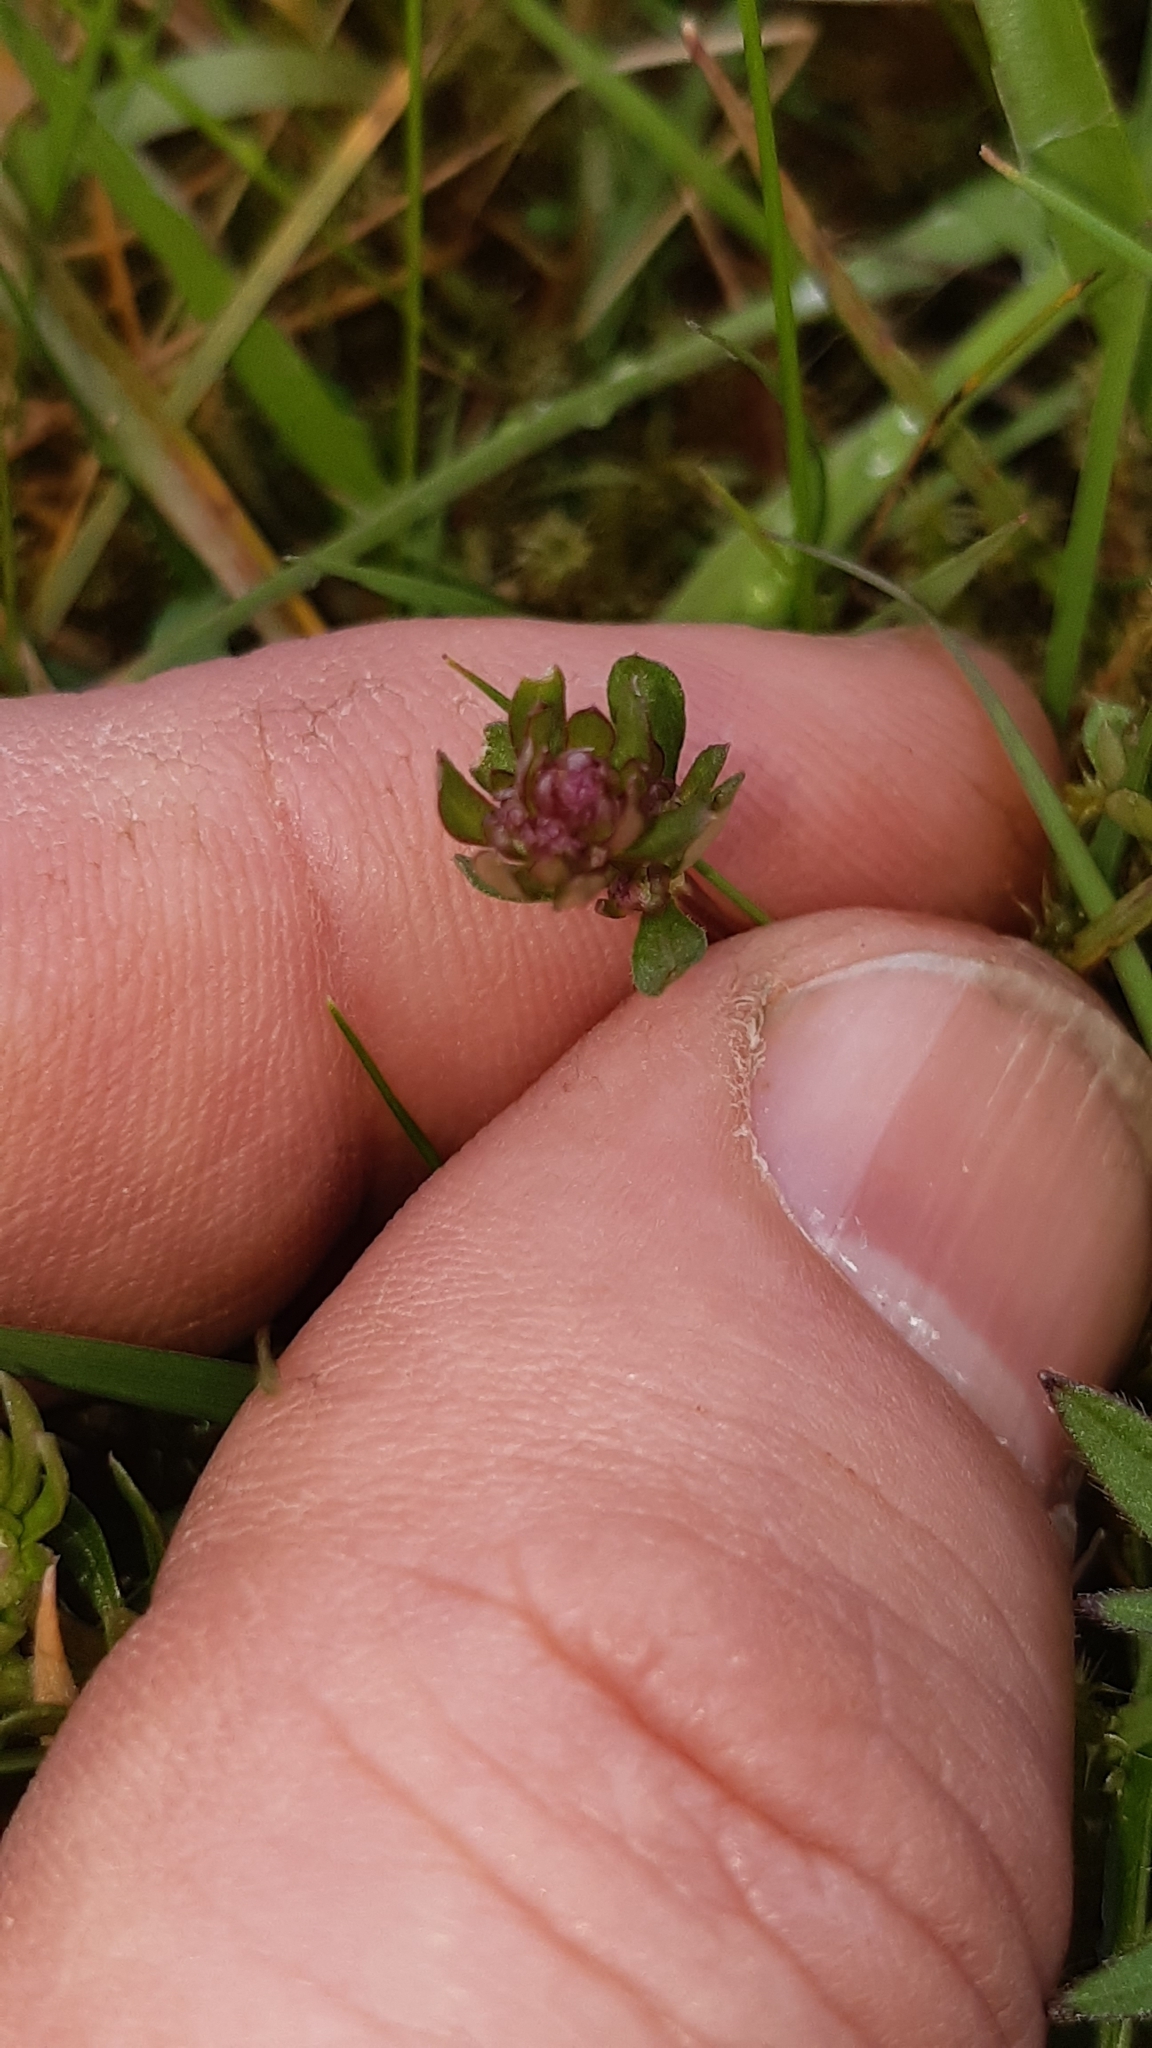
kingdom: Plantae
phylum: Tracheophyta
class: Magnoliopsida
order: Gentianales
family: Rubiaceae
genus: Galium
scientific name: Galium saxatile
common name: Heath bedstraw
